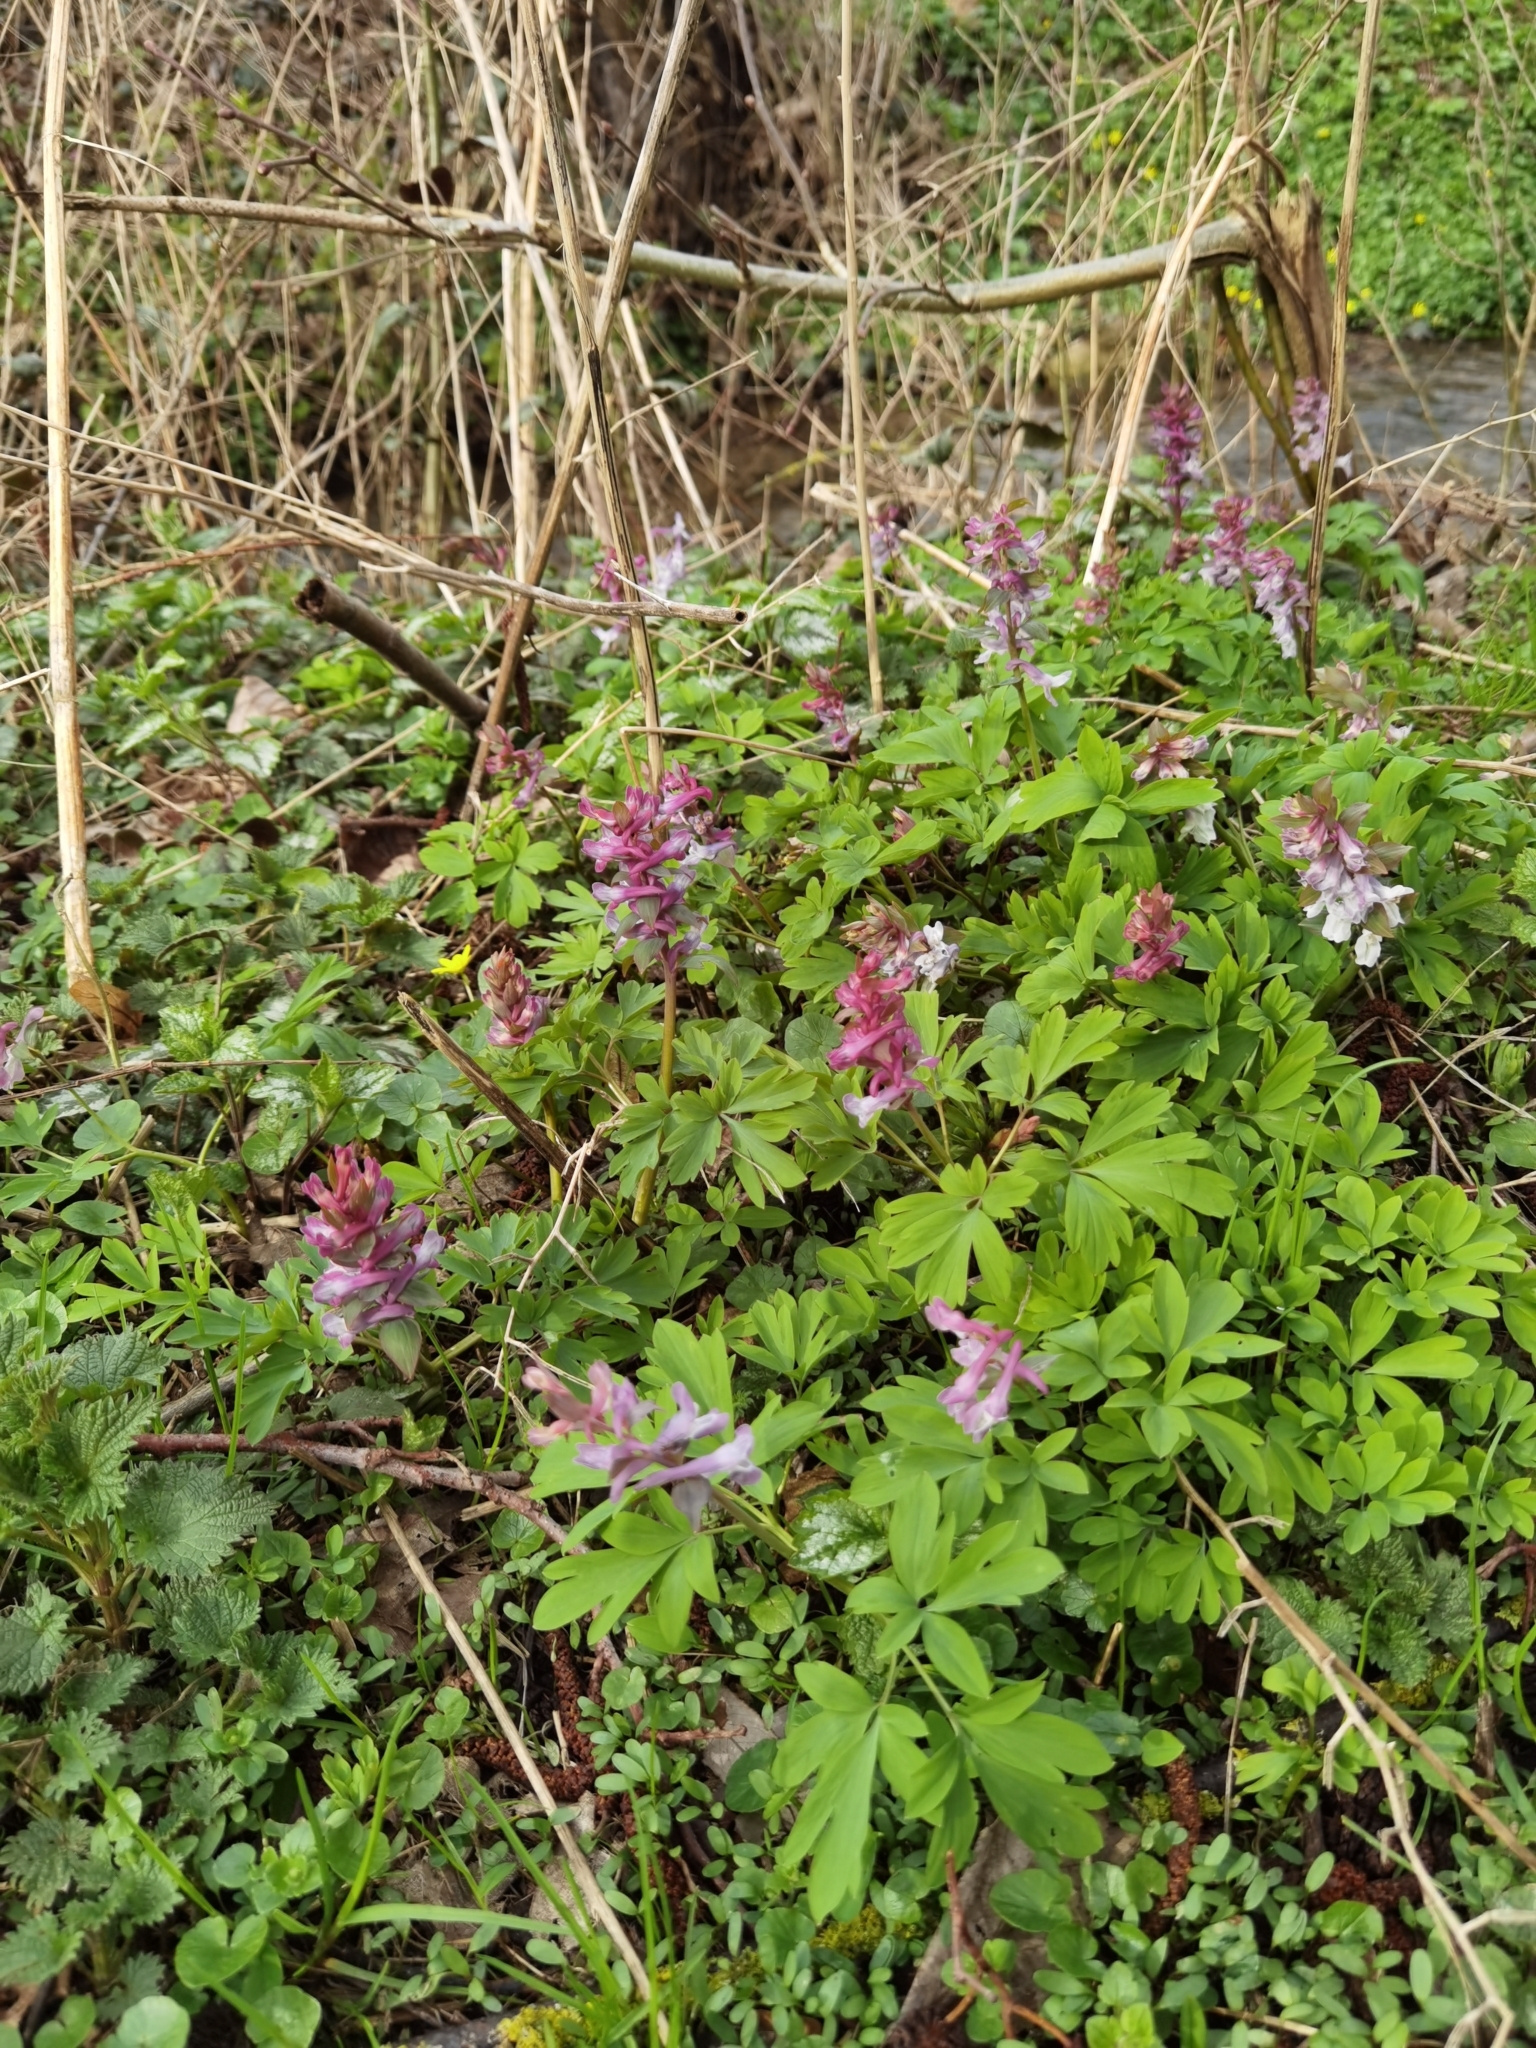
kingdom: Plantae
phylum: Tracheophyta
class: Magnoliopsida
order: Ranunculales
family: Papaveraceae
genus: Corydalis
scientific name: Corydalis cava
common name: Hollowroot
